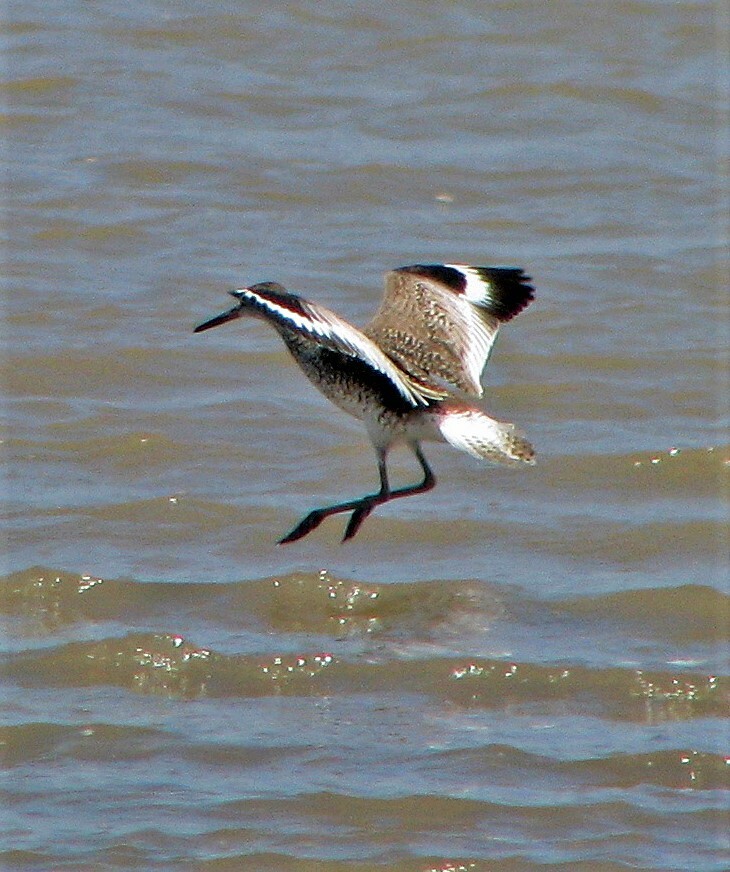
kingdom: Animalia
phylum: Chordata
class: Aves
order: Charadriiformes
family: Scolopacidae
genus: Tringa
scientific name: Tringa semipalmata
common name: Willet
